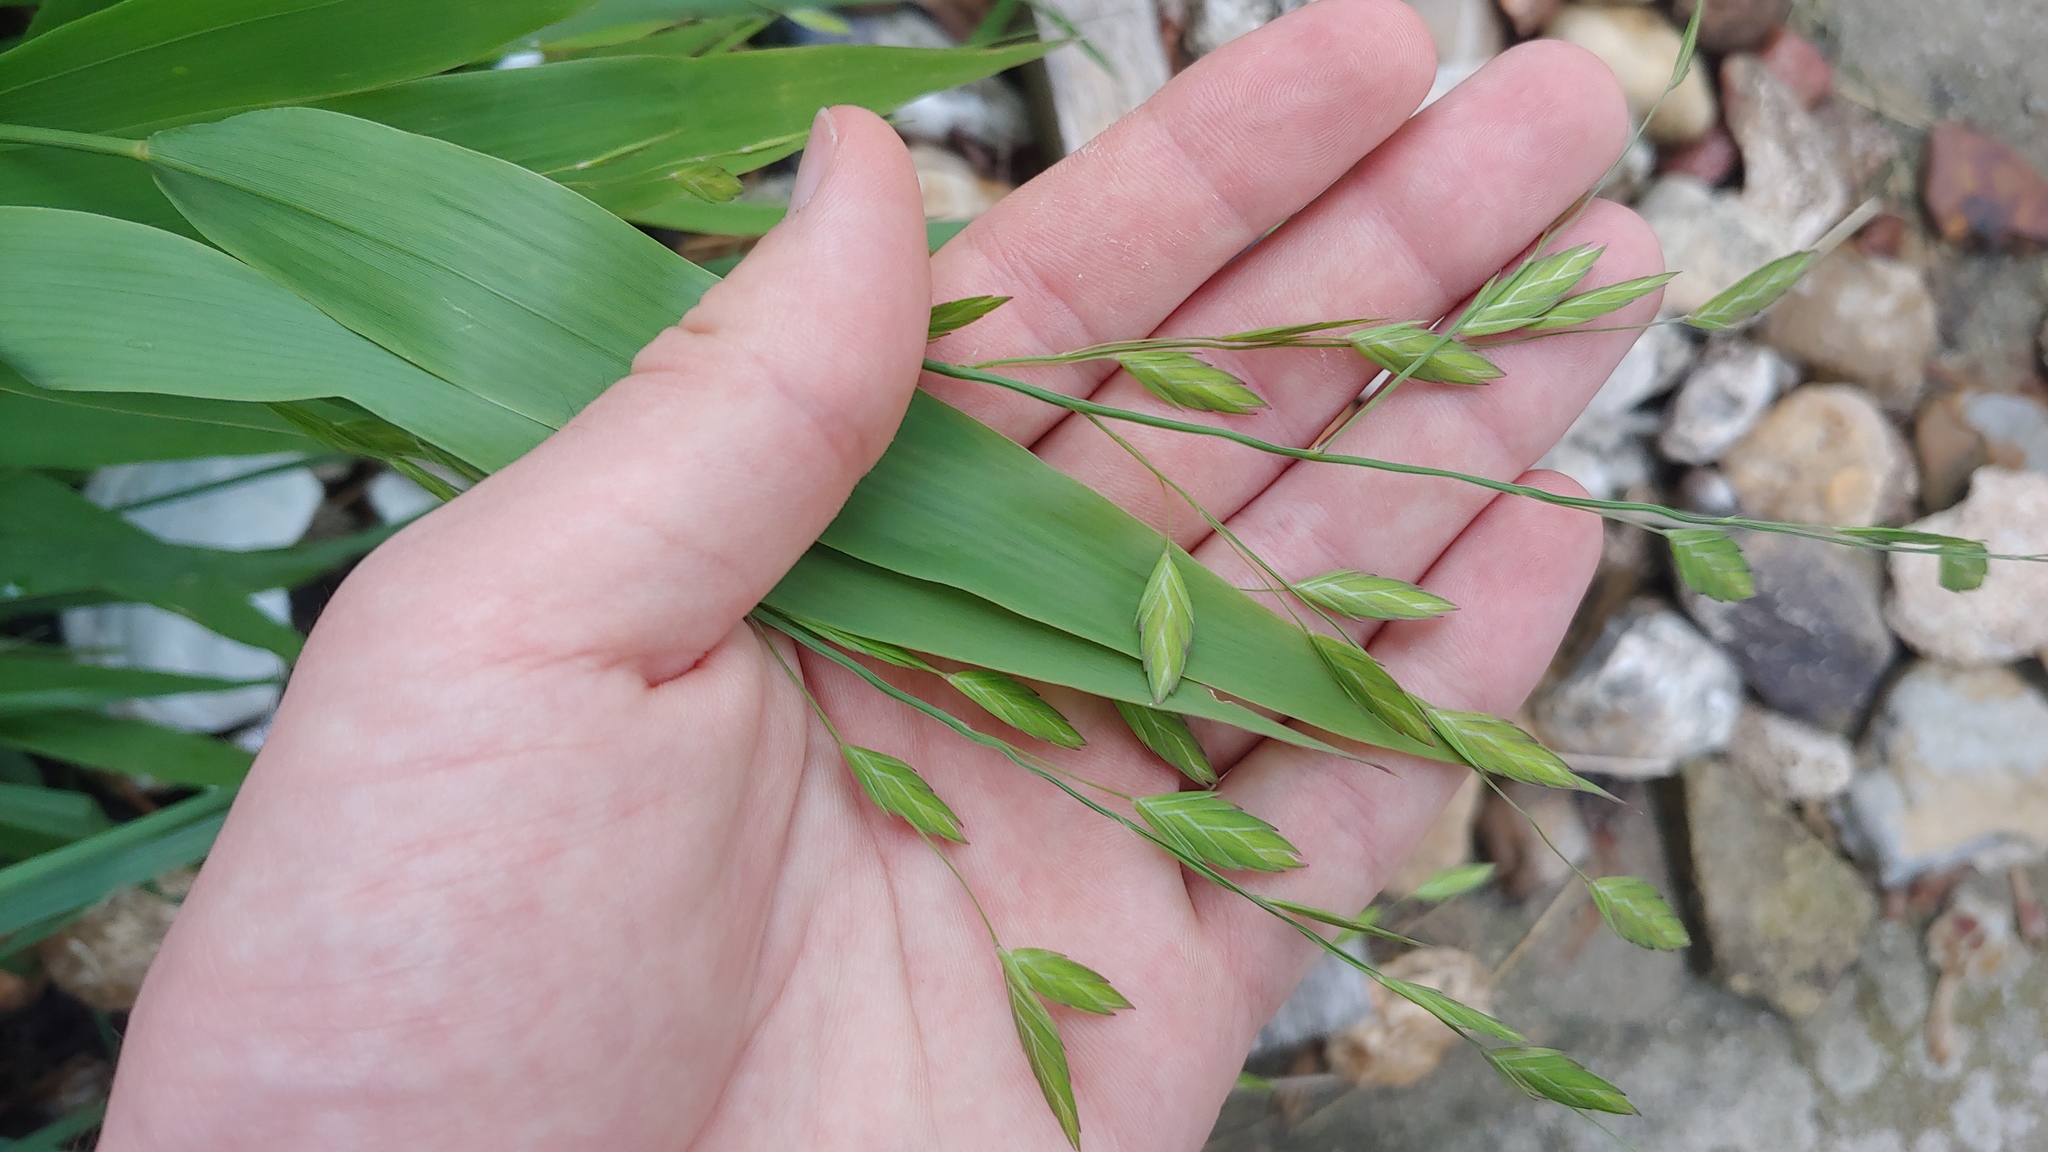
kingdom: Plantae
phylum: Tracheophyta
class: Liliopsida
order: Poales
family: Poaceae
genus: Chasmanthium
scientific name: Chasmanthium latifolium
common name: Broad-leaved chasmanthium
